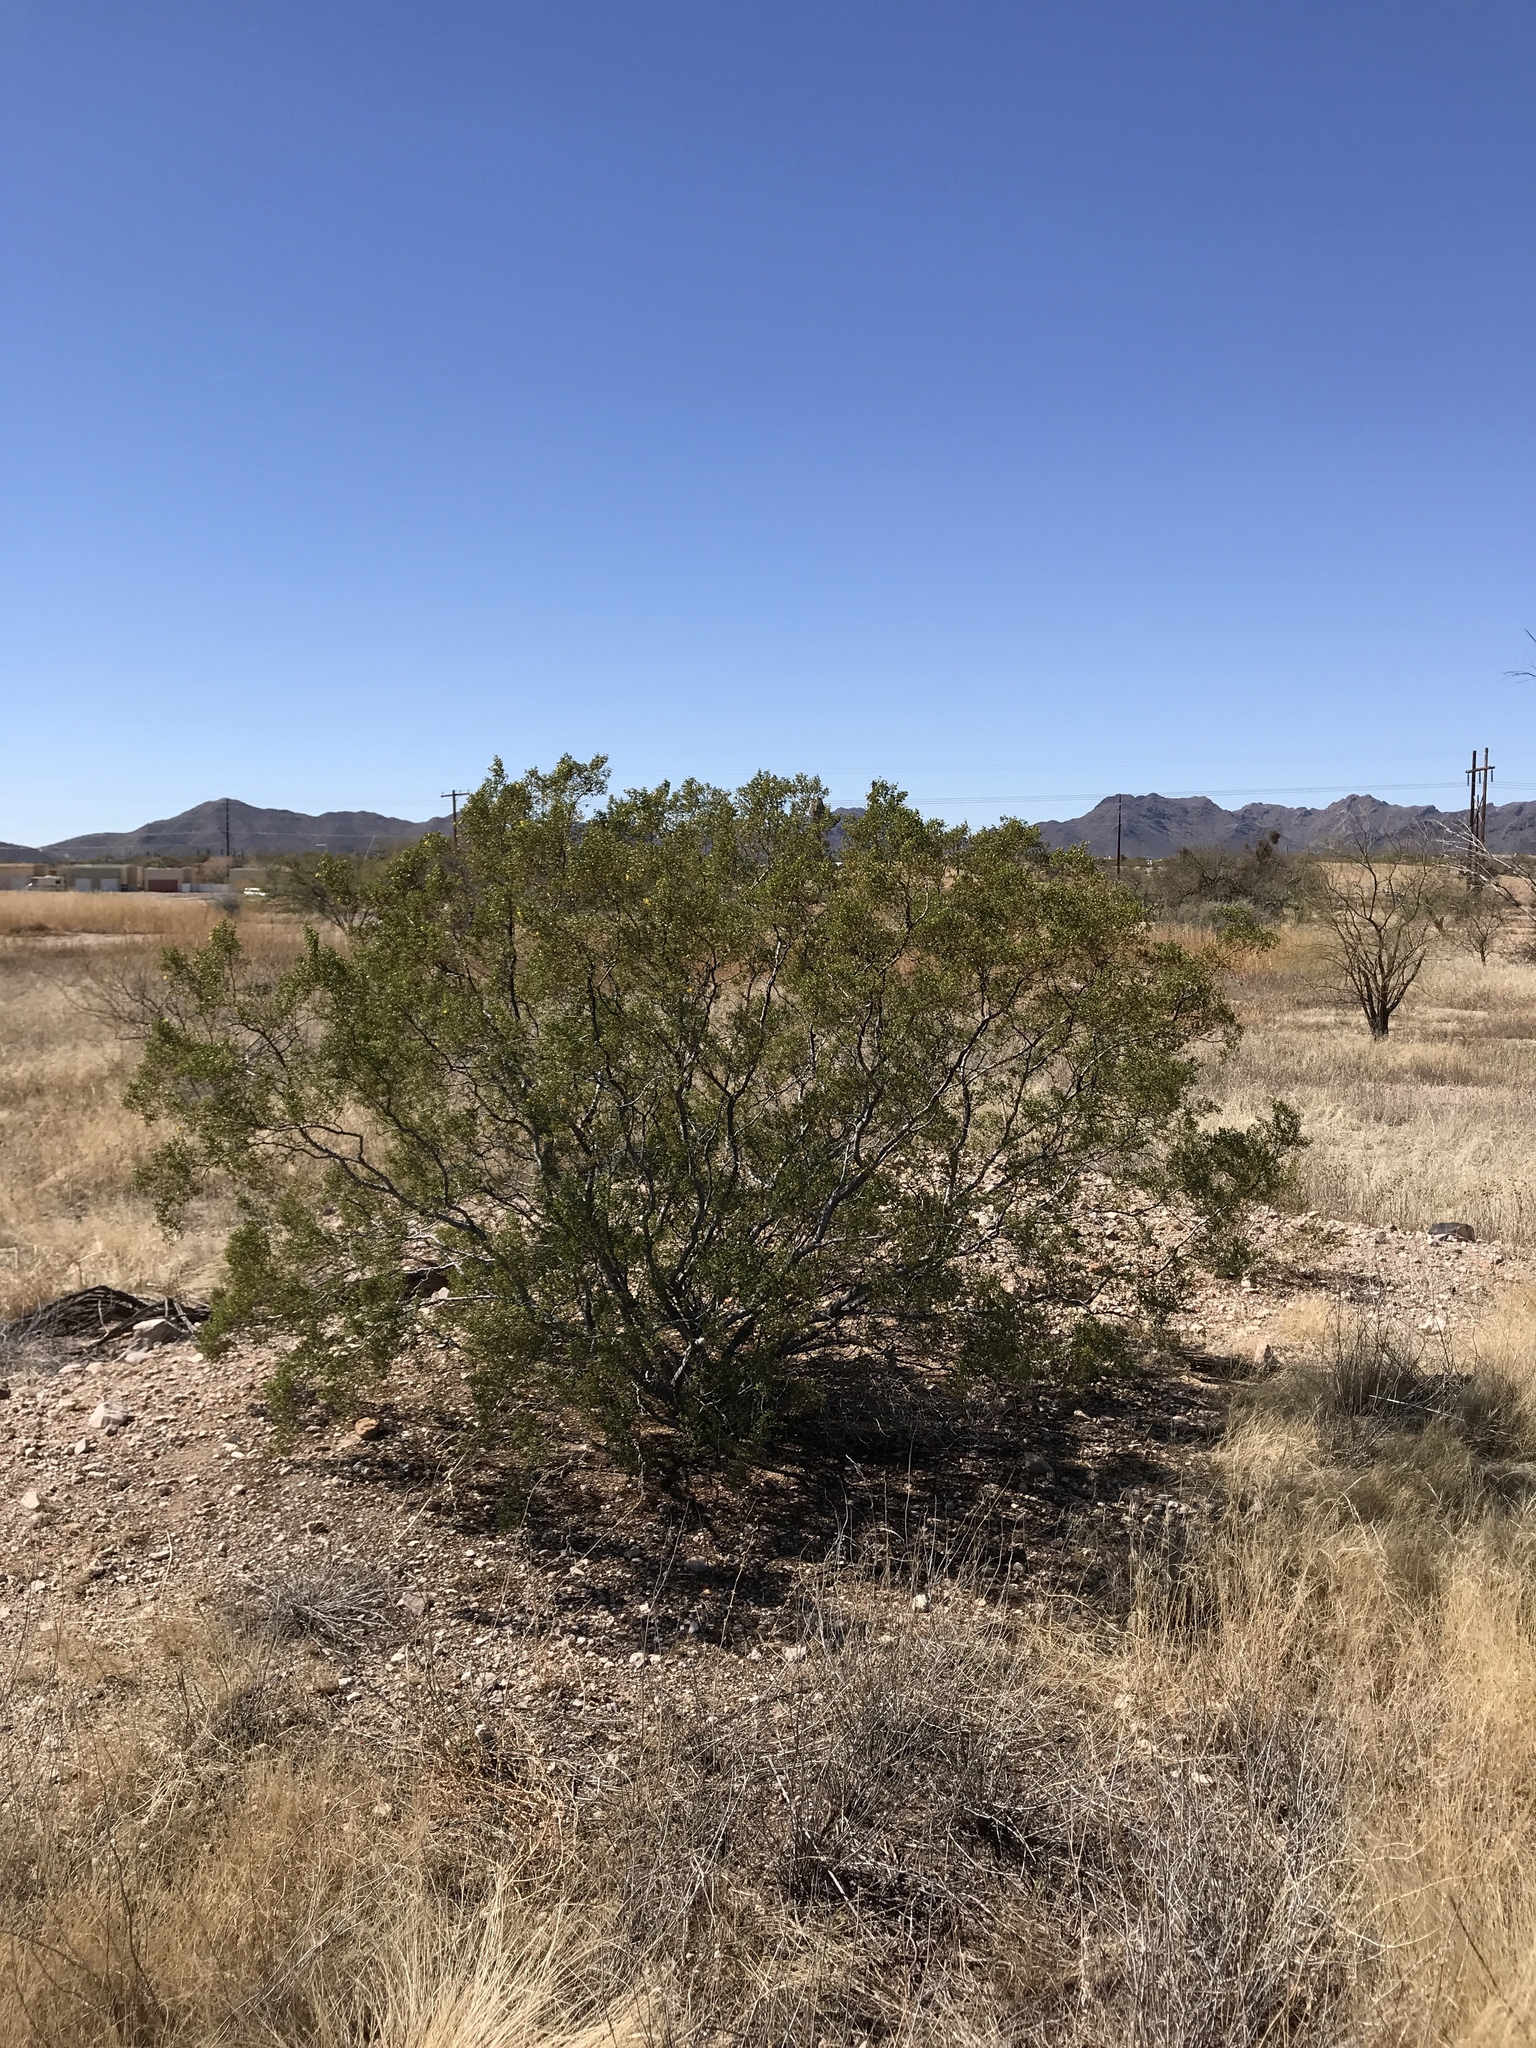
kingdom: Plantae
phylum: Tracheophyta
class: Magnoliopsida
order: Zygophyllales
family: Zygophyllaceae
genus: Larrea
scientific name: Larrea tridentata
